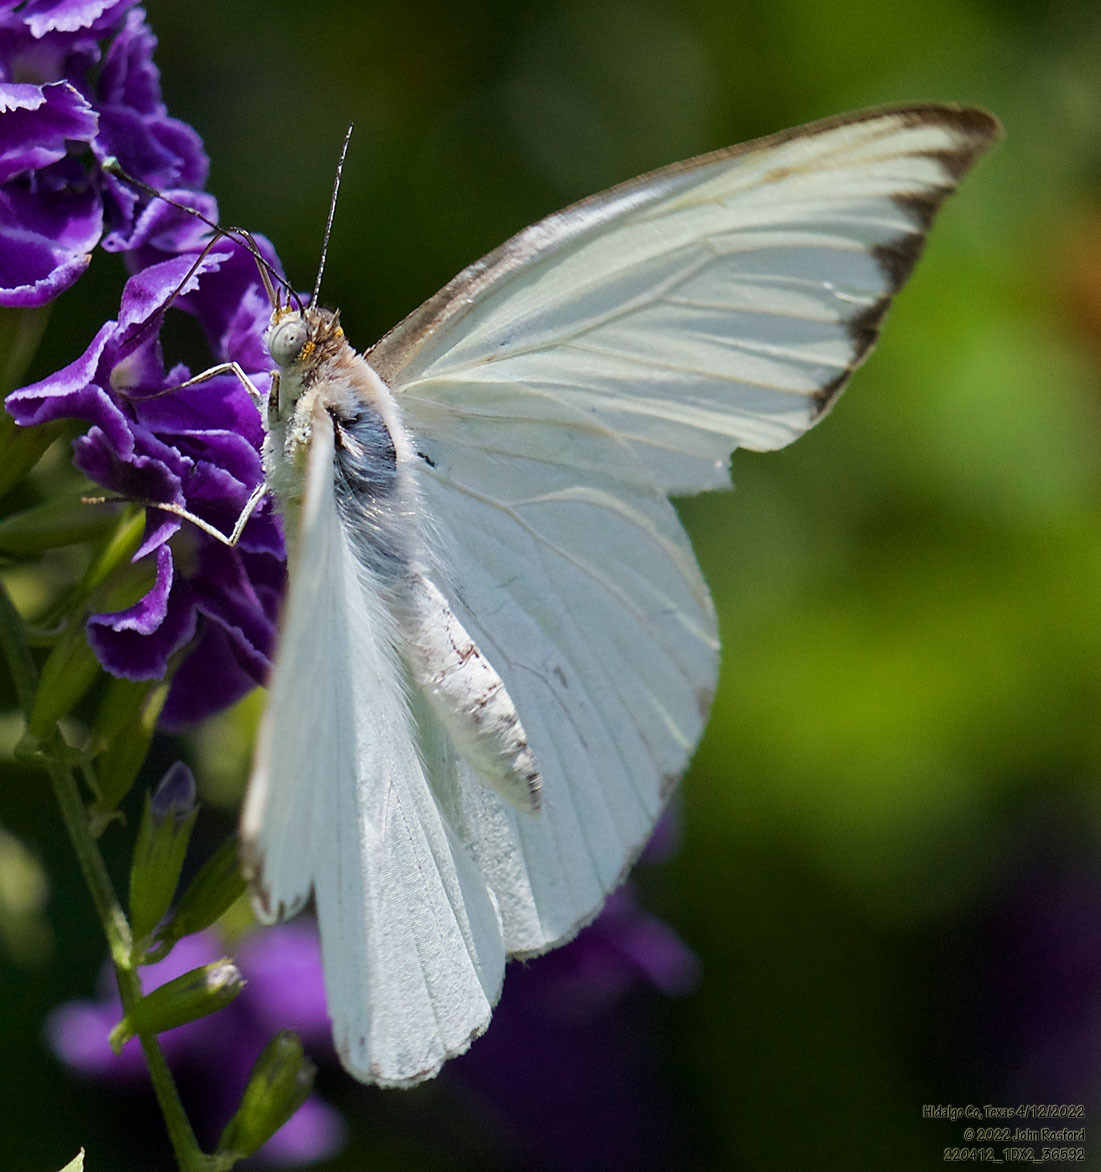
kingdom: Animalia
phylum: Arthropoda
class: Insecta
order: Lepidoptera
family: Pieridae
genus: Ascia
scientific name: Ascia monuste
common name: Great southern white
